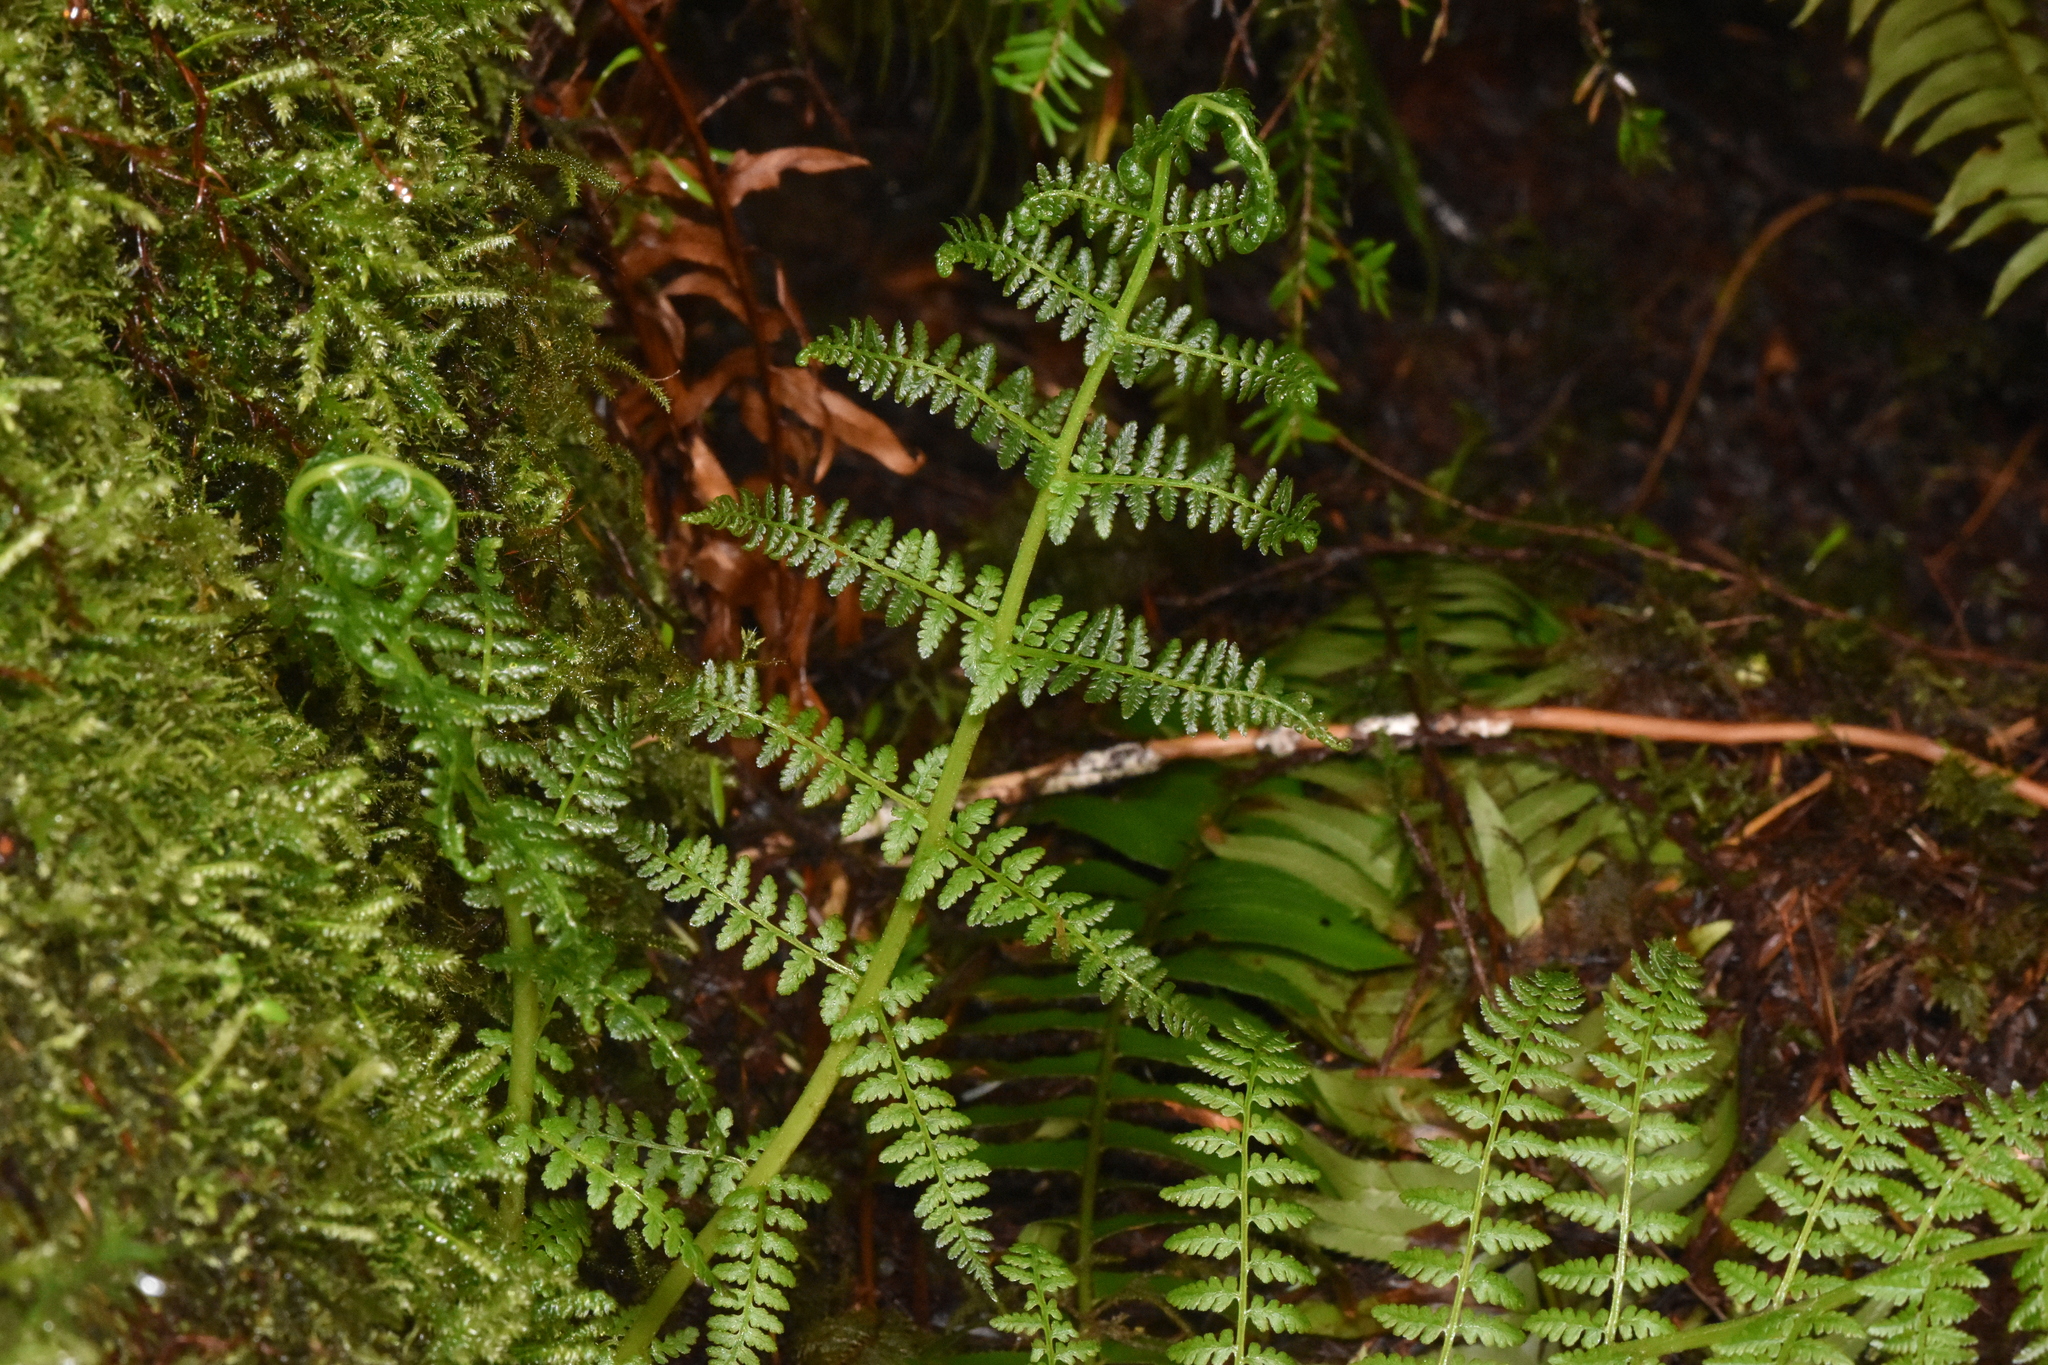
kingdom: Plantae
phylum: Tracheophyta
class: Polypodiopsida
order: Polypodiales
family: Athyriaceae
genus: Athyrium
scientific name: Athyrium filix-femina
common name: Lady fern
